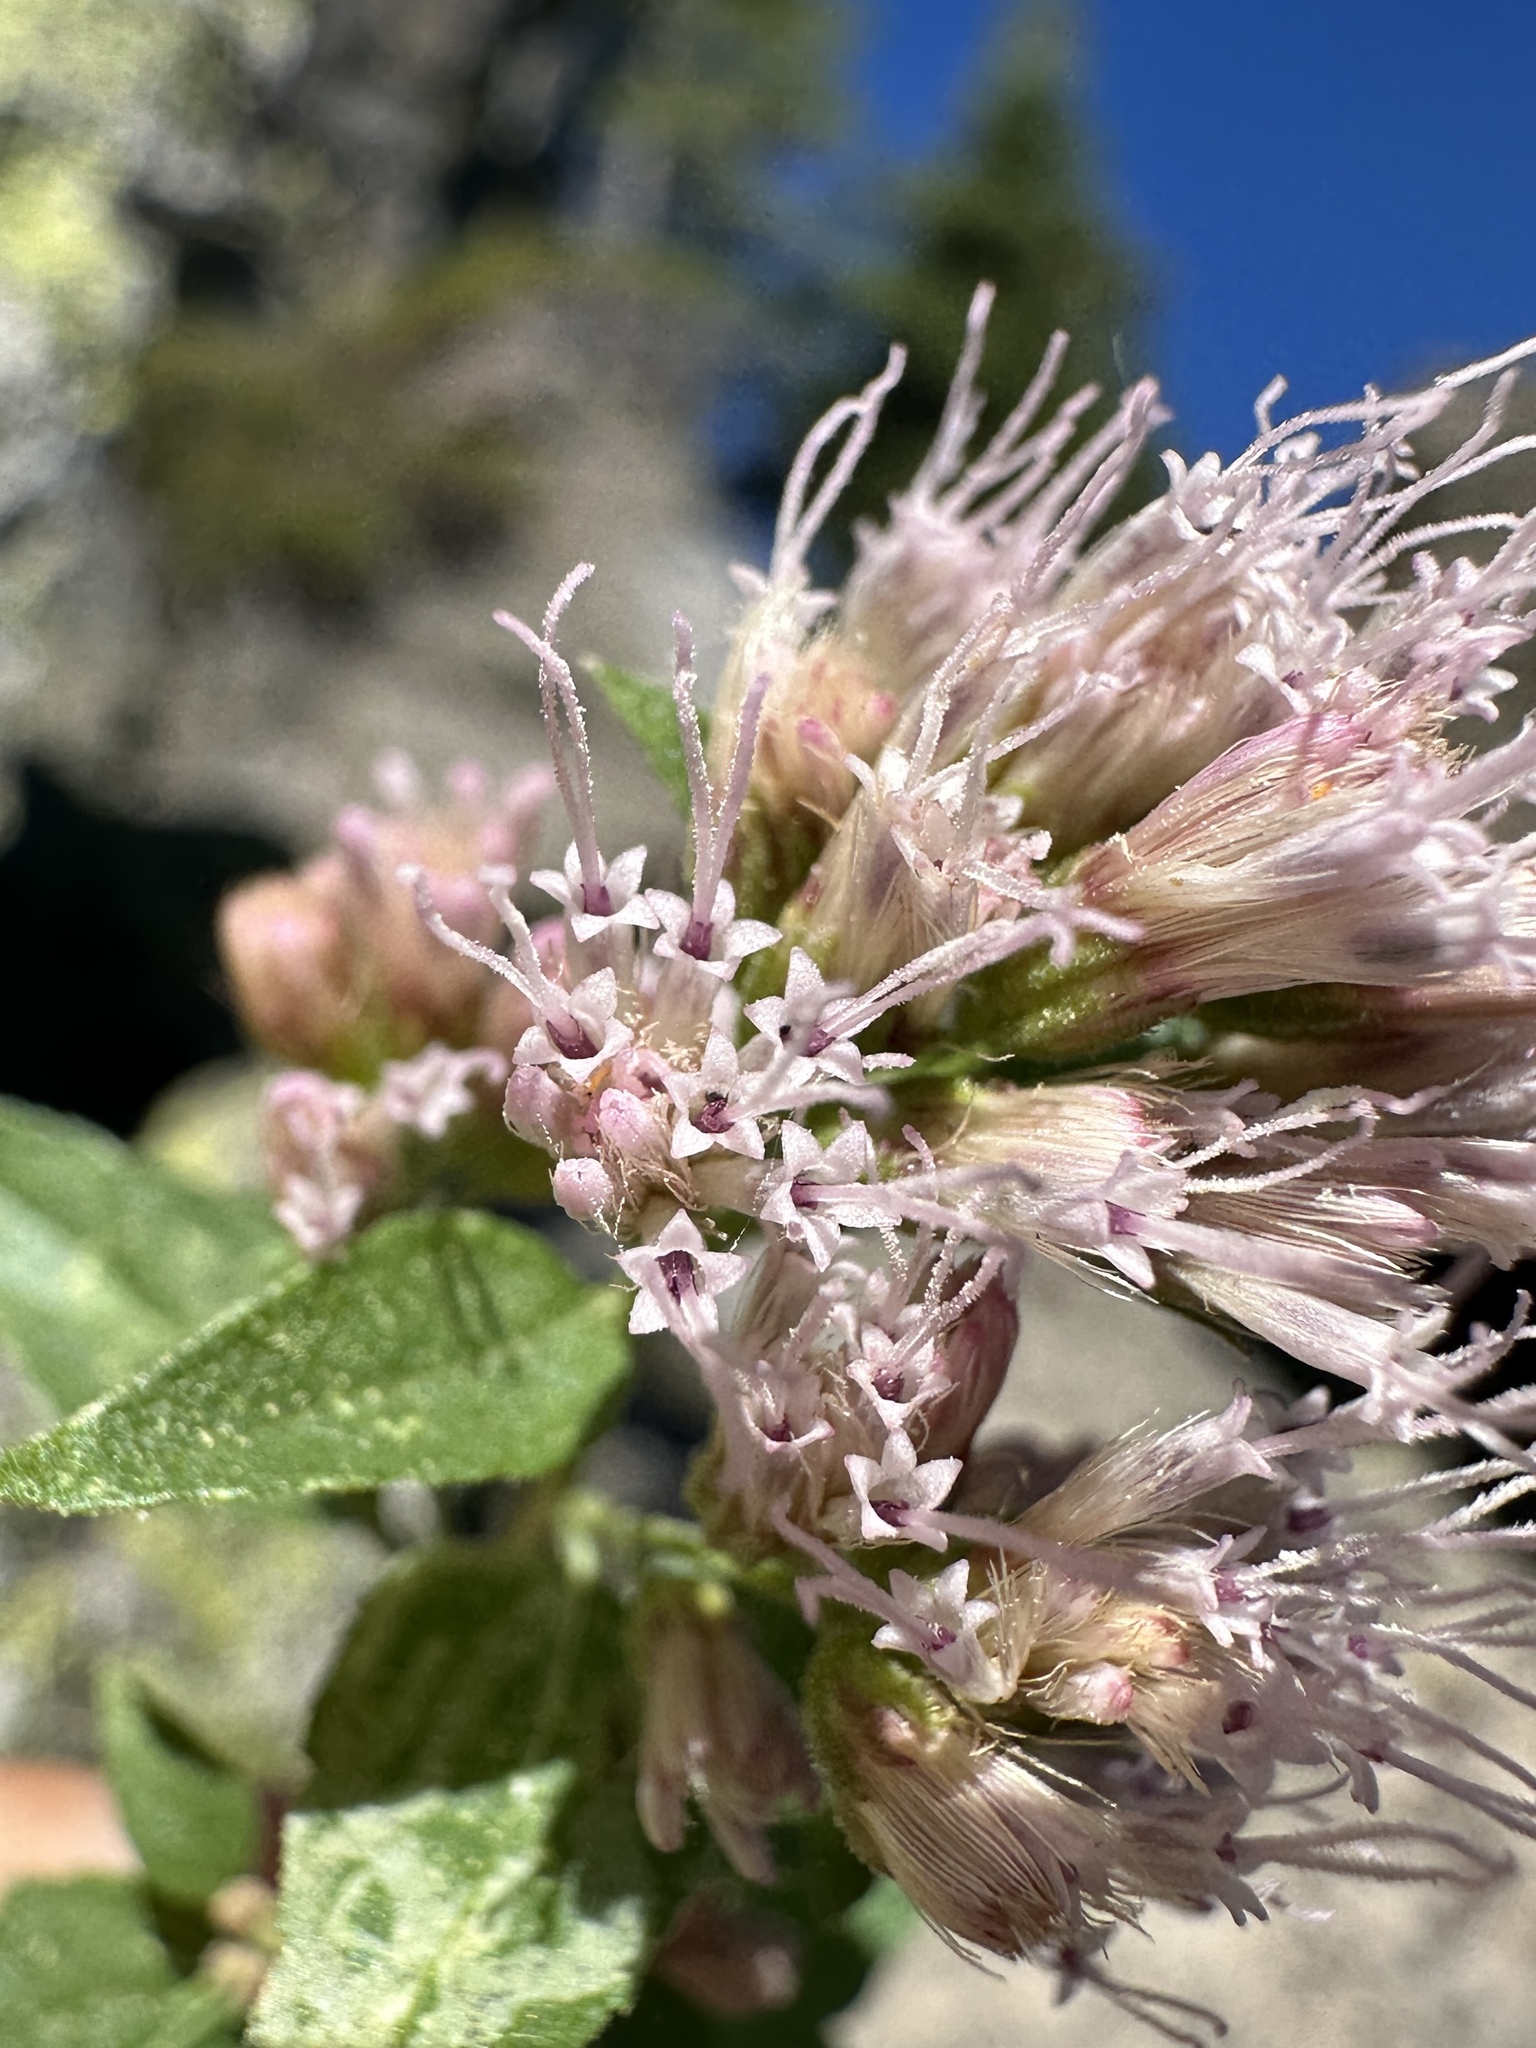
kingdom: Plantae
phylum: Tracheophyta
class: Magnoliopsida
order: Asterales
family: Asteraceae
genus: Ageratina
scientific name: Ageratina occidentalis
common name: Western snakeroot
